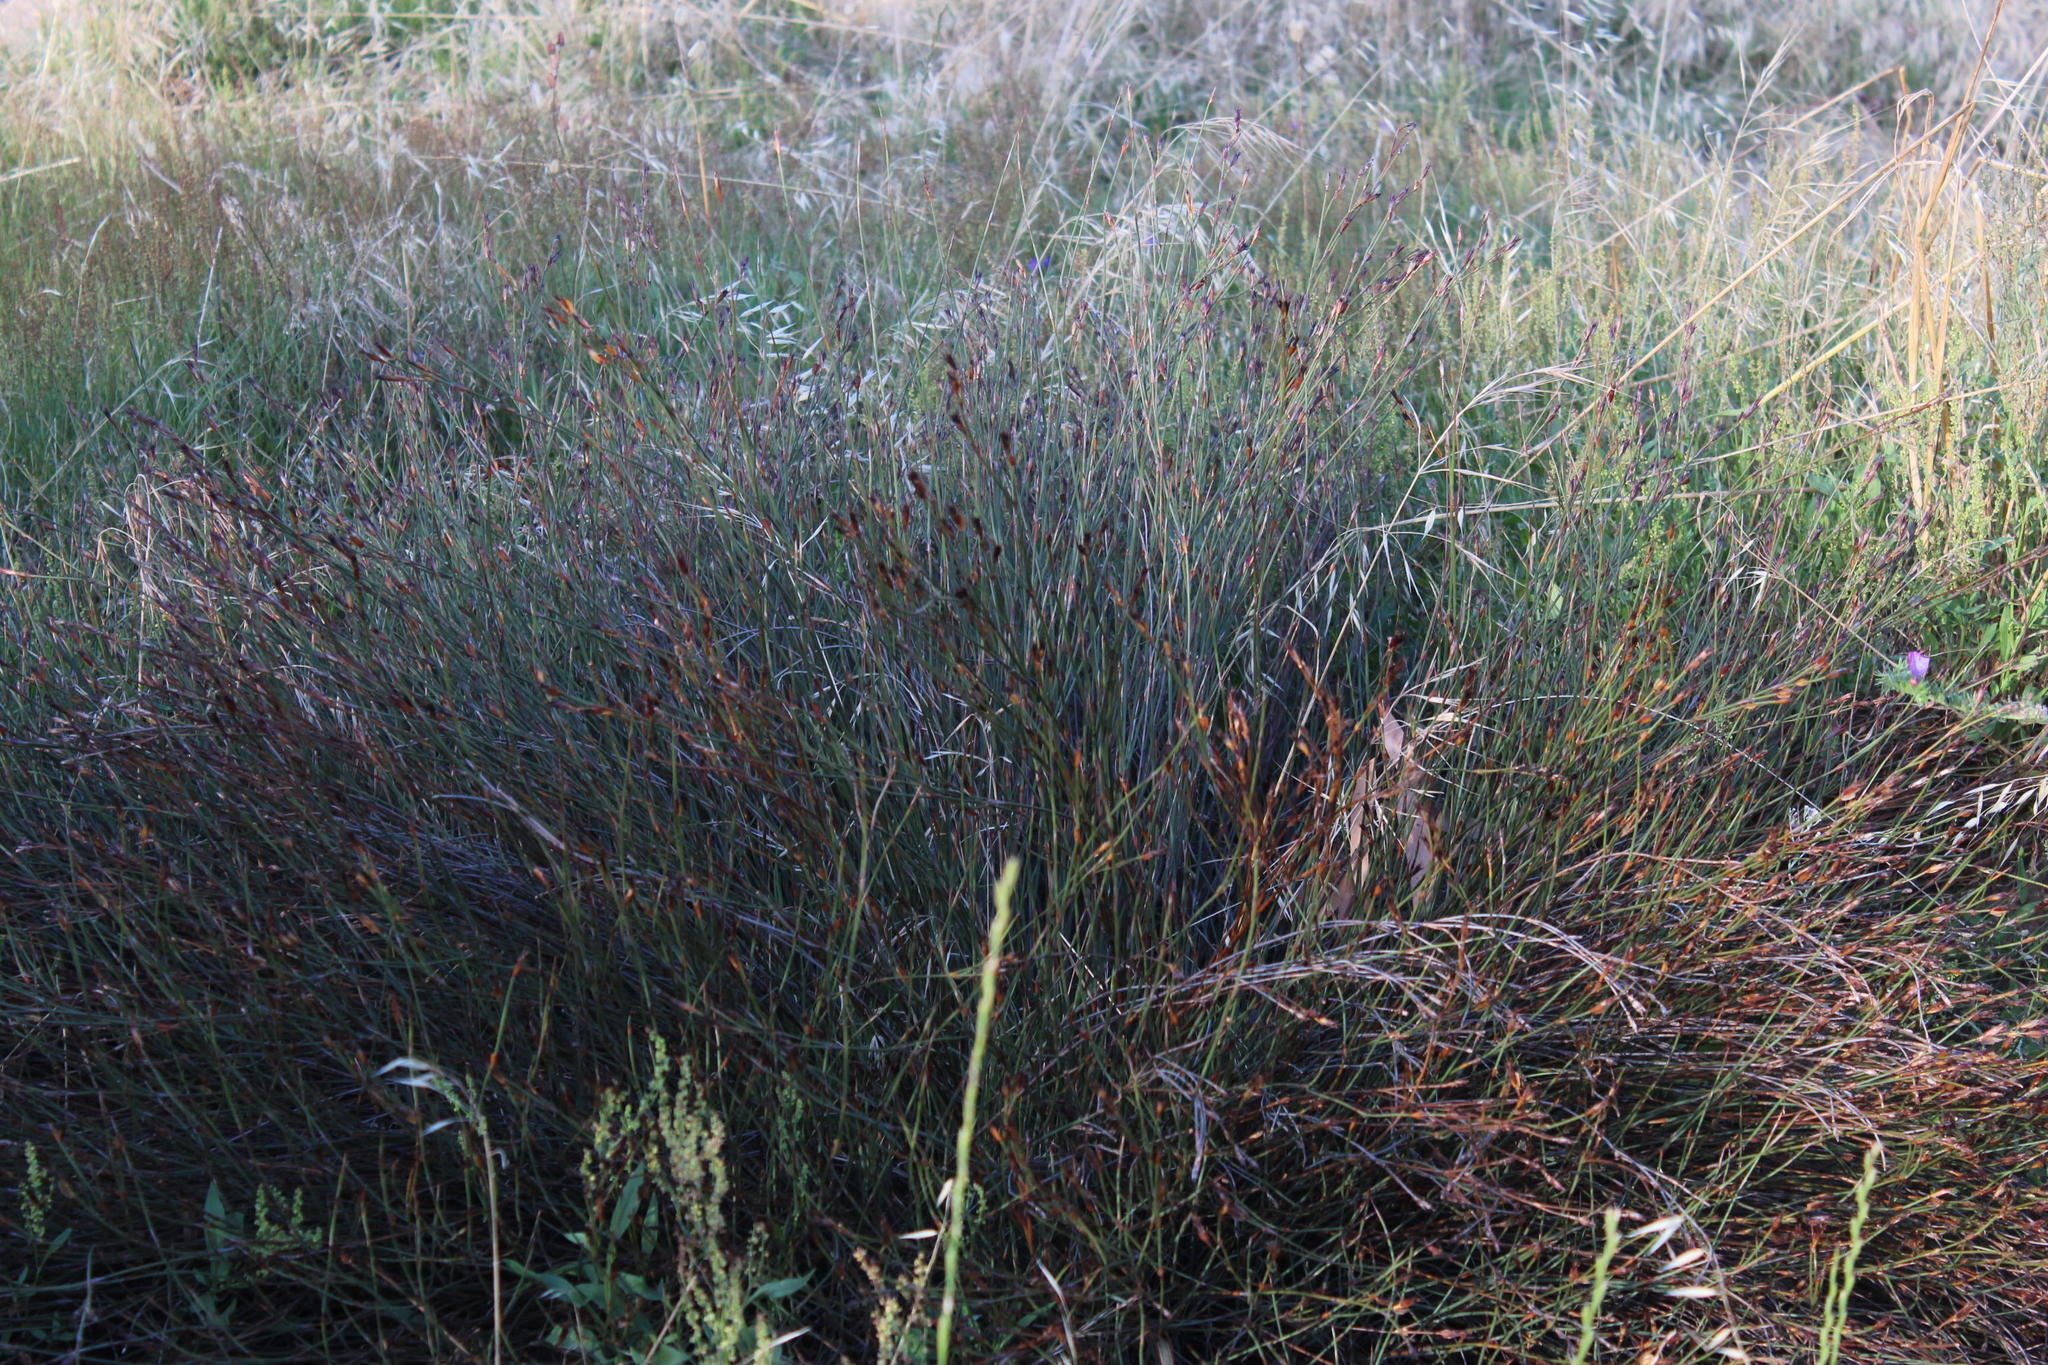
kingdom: Plantae
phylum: Tracheophyta
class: Liliopsida
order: Poales
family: Restionaceae
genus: Willdenowia
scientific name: Willdenowia teres
